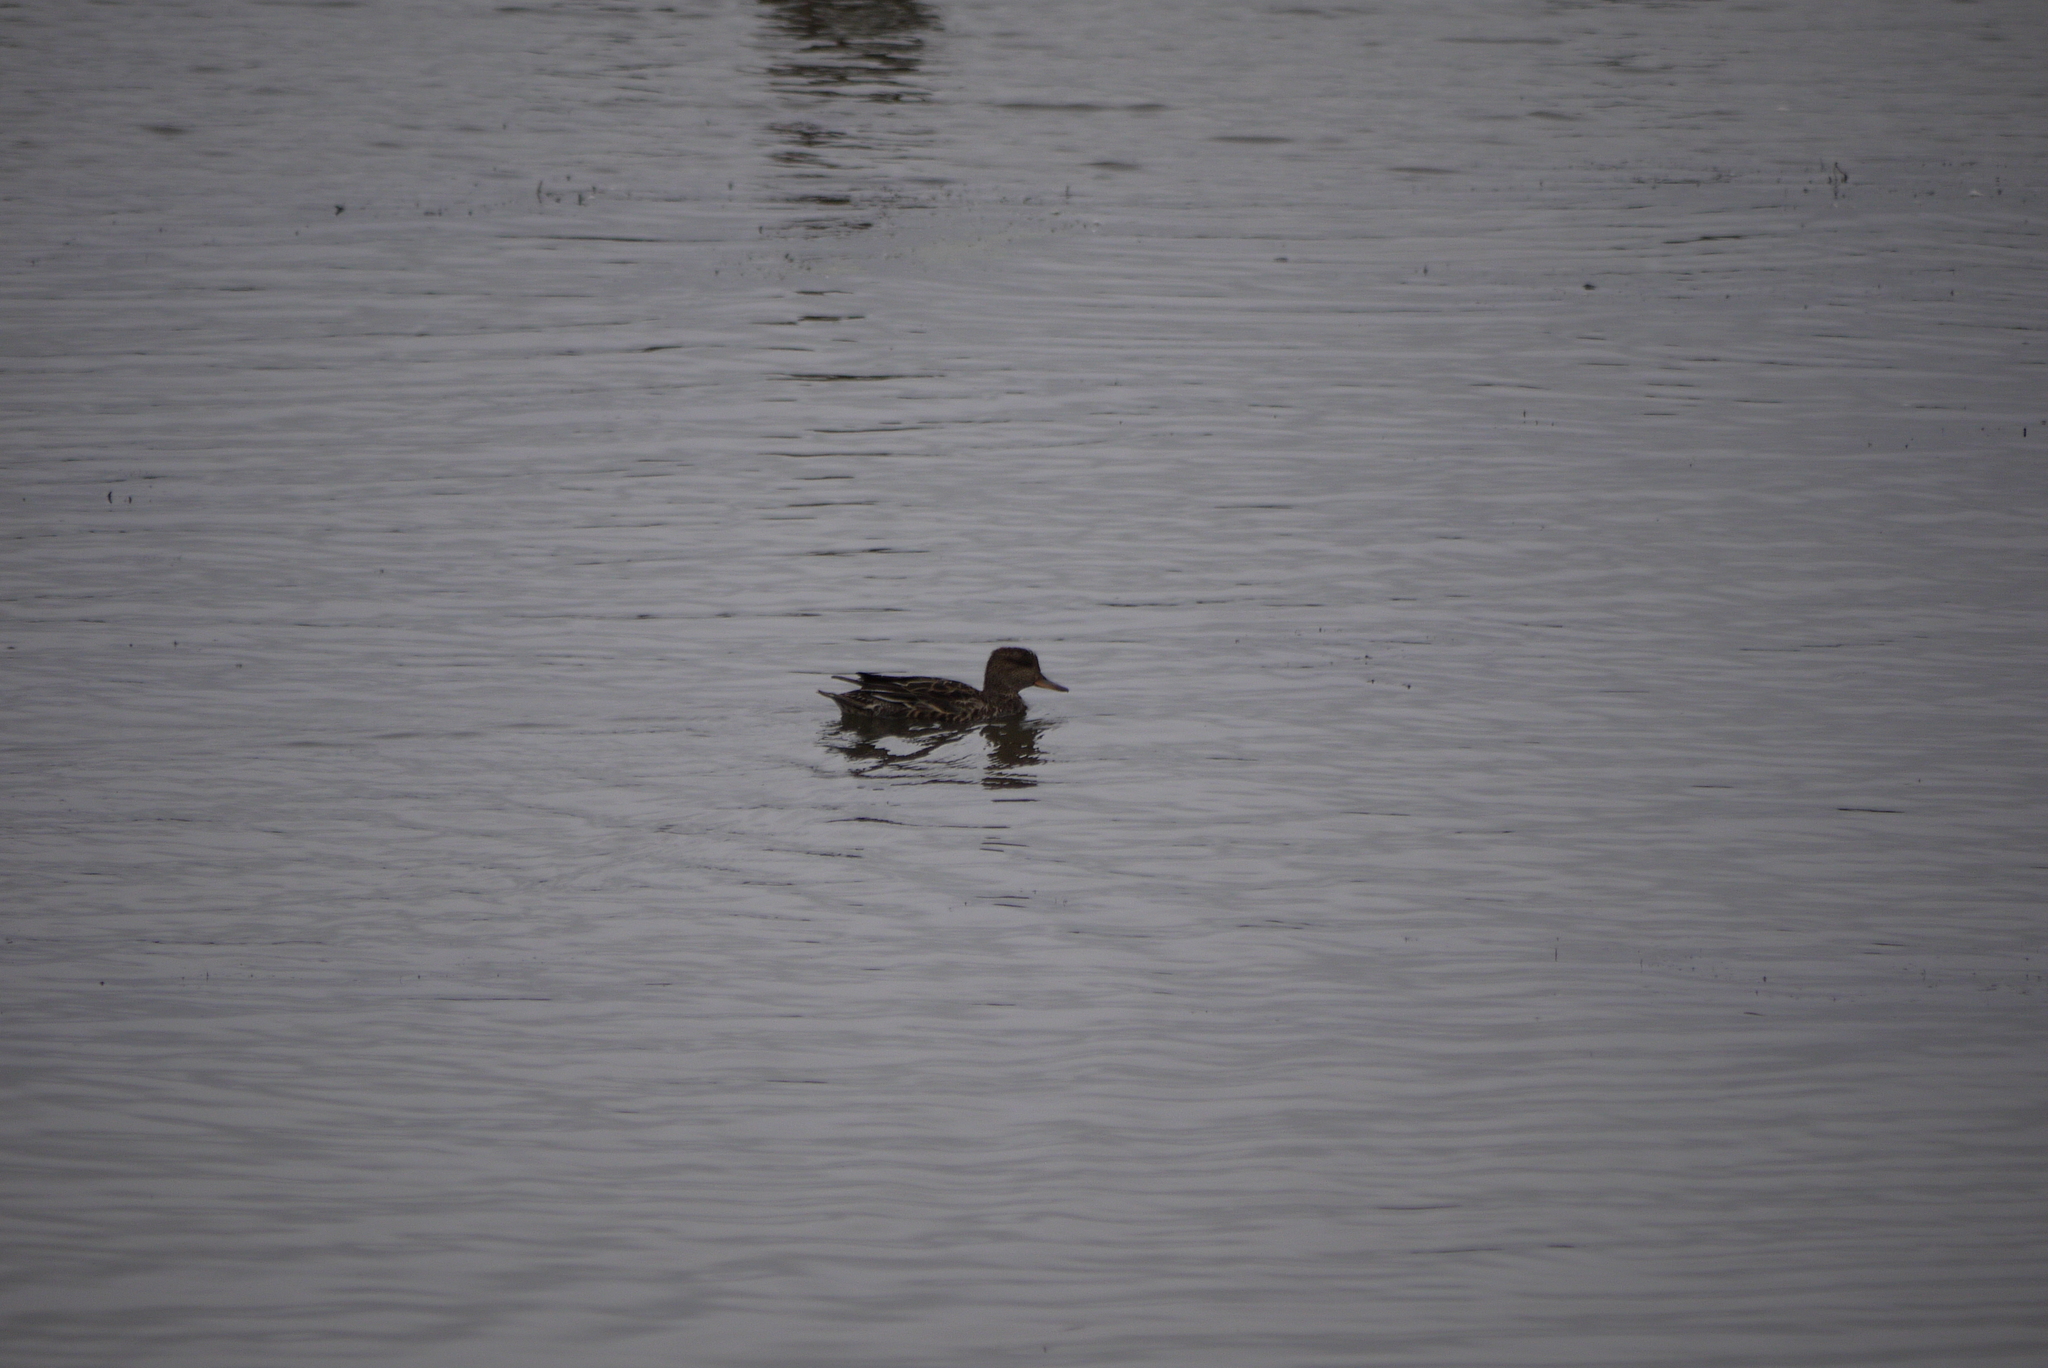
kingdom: Animalia
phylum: Chordata
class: Aves
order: Anseriformes
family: Anatidae
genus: Anas
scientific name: Anas crecca
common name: Eurasian teal
